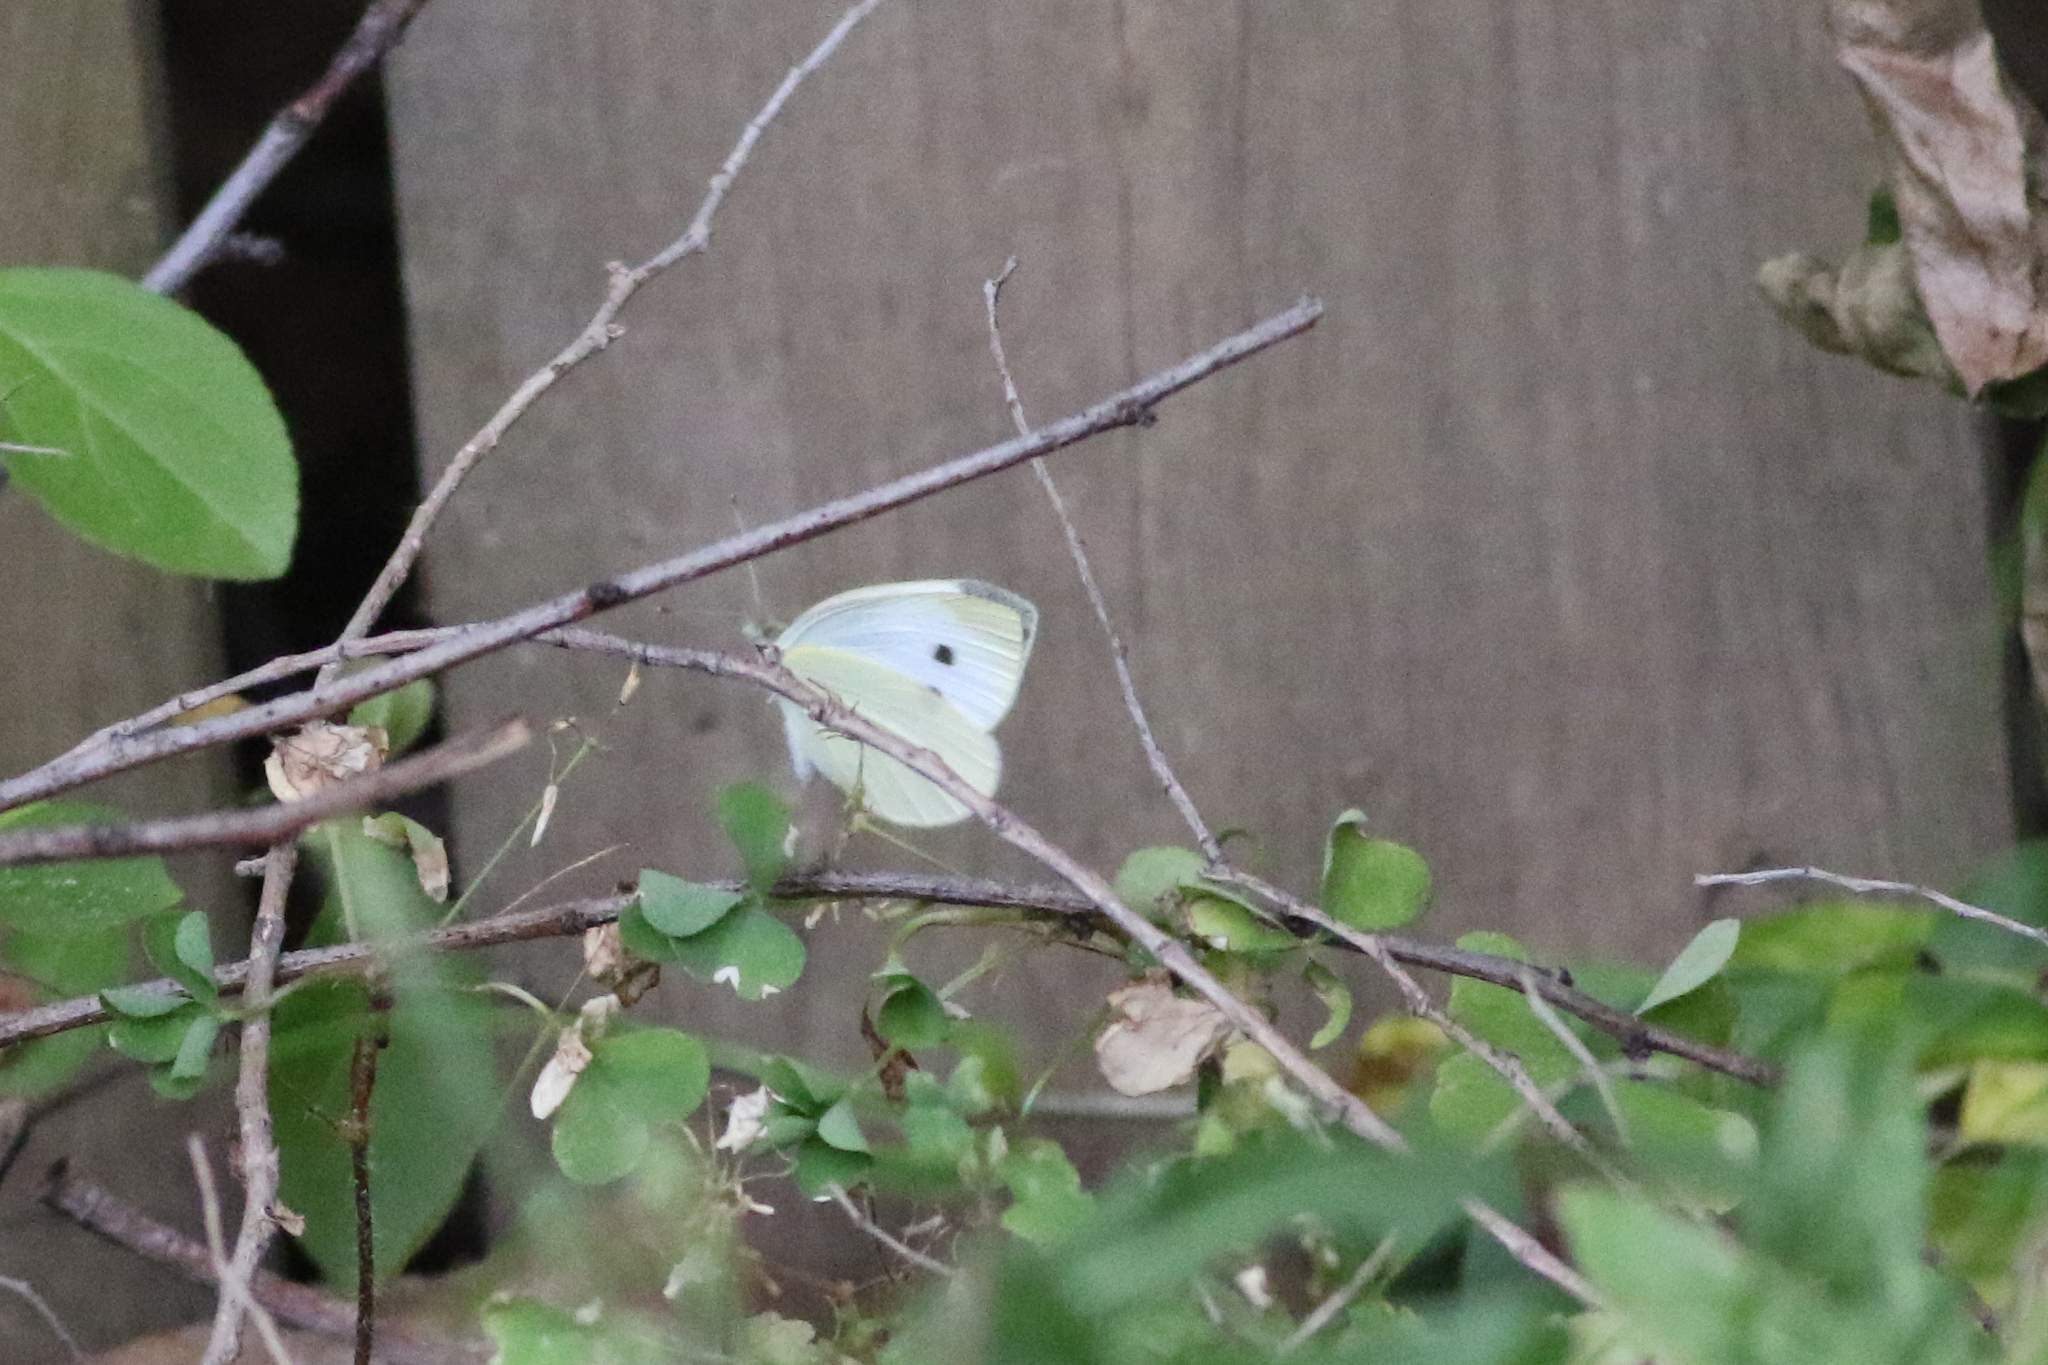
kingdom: Animalia
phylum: Arthropoda
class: Insecta
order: Lepidoptera
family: Pieridae
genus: Pieris
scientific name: Pieris rapae
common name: Small white
